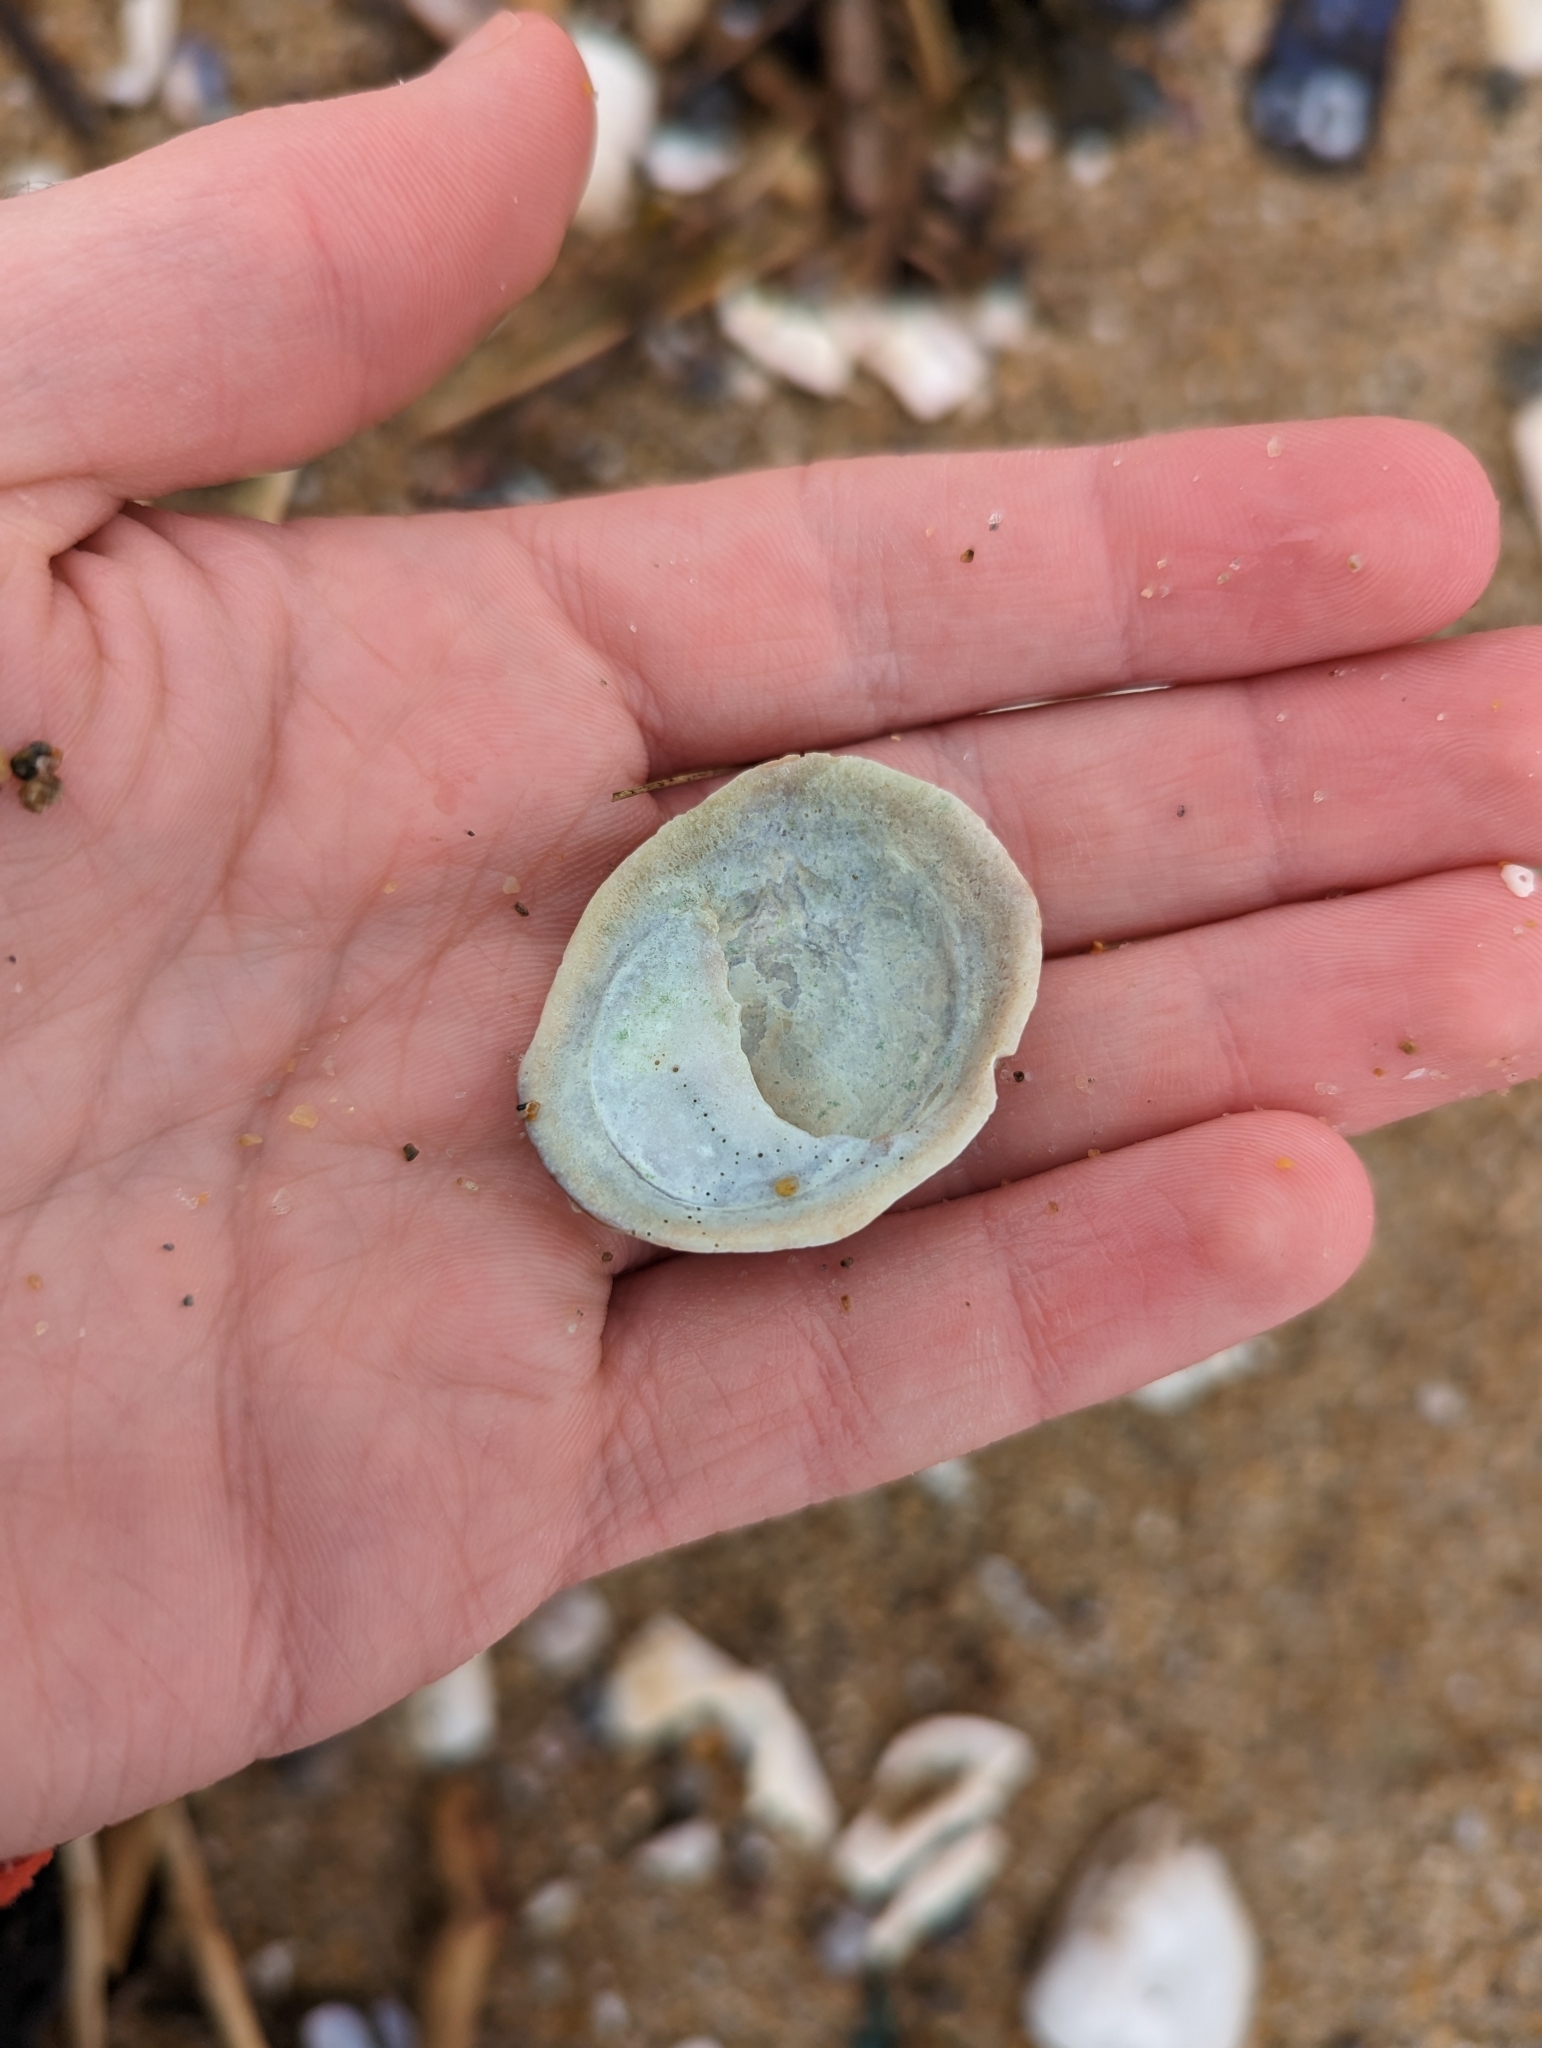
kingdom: Animalia
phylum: Mollusca
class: Gastropoda
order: Littorinimorpha
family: Calyptraeidae
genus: Crepidula
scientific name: Crepidula fornicata
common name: Slipper limpet
